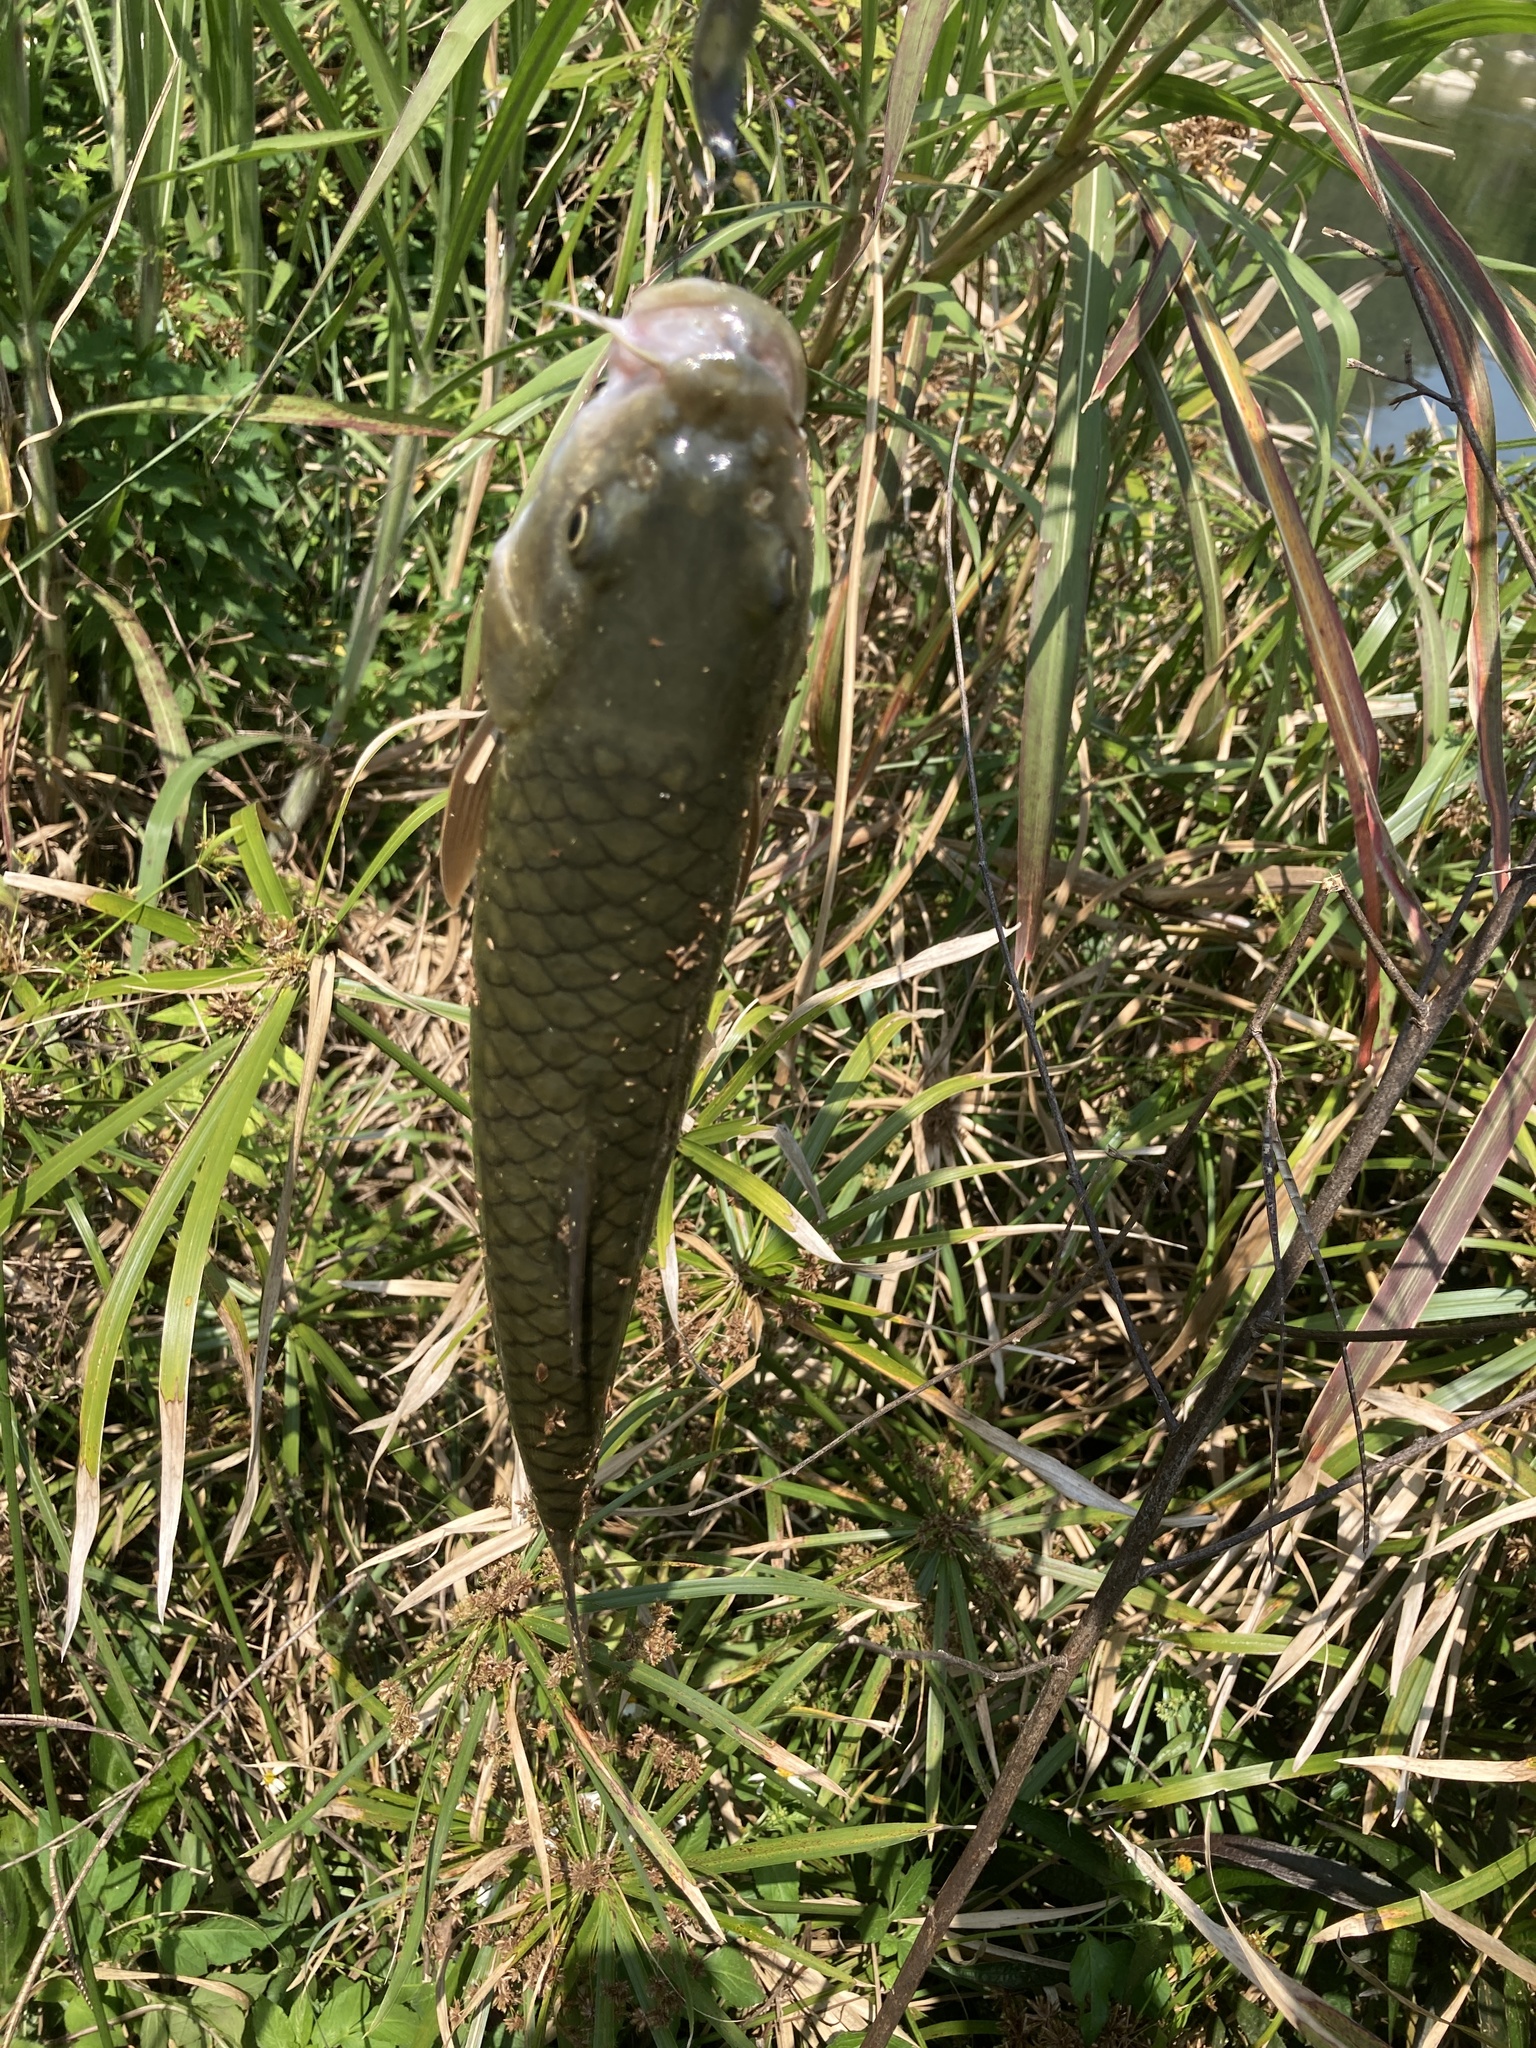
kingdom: Animalia
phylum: Chordata
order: Cypriniformes
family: Cyprinidae
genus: Spinibarbus
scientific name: Spinibarbus hollandi
